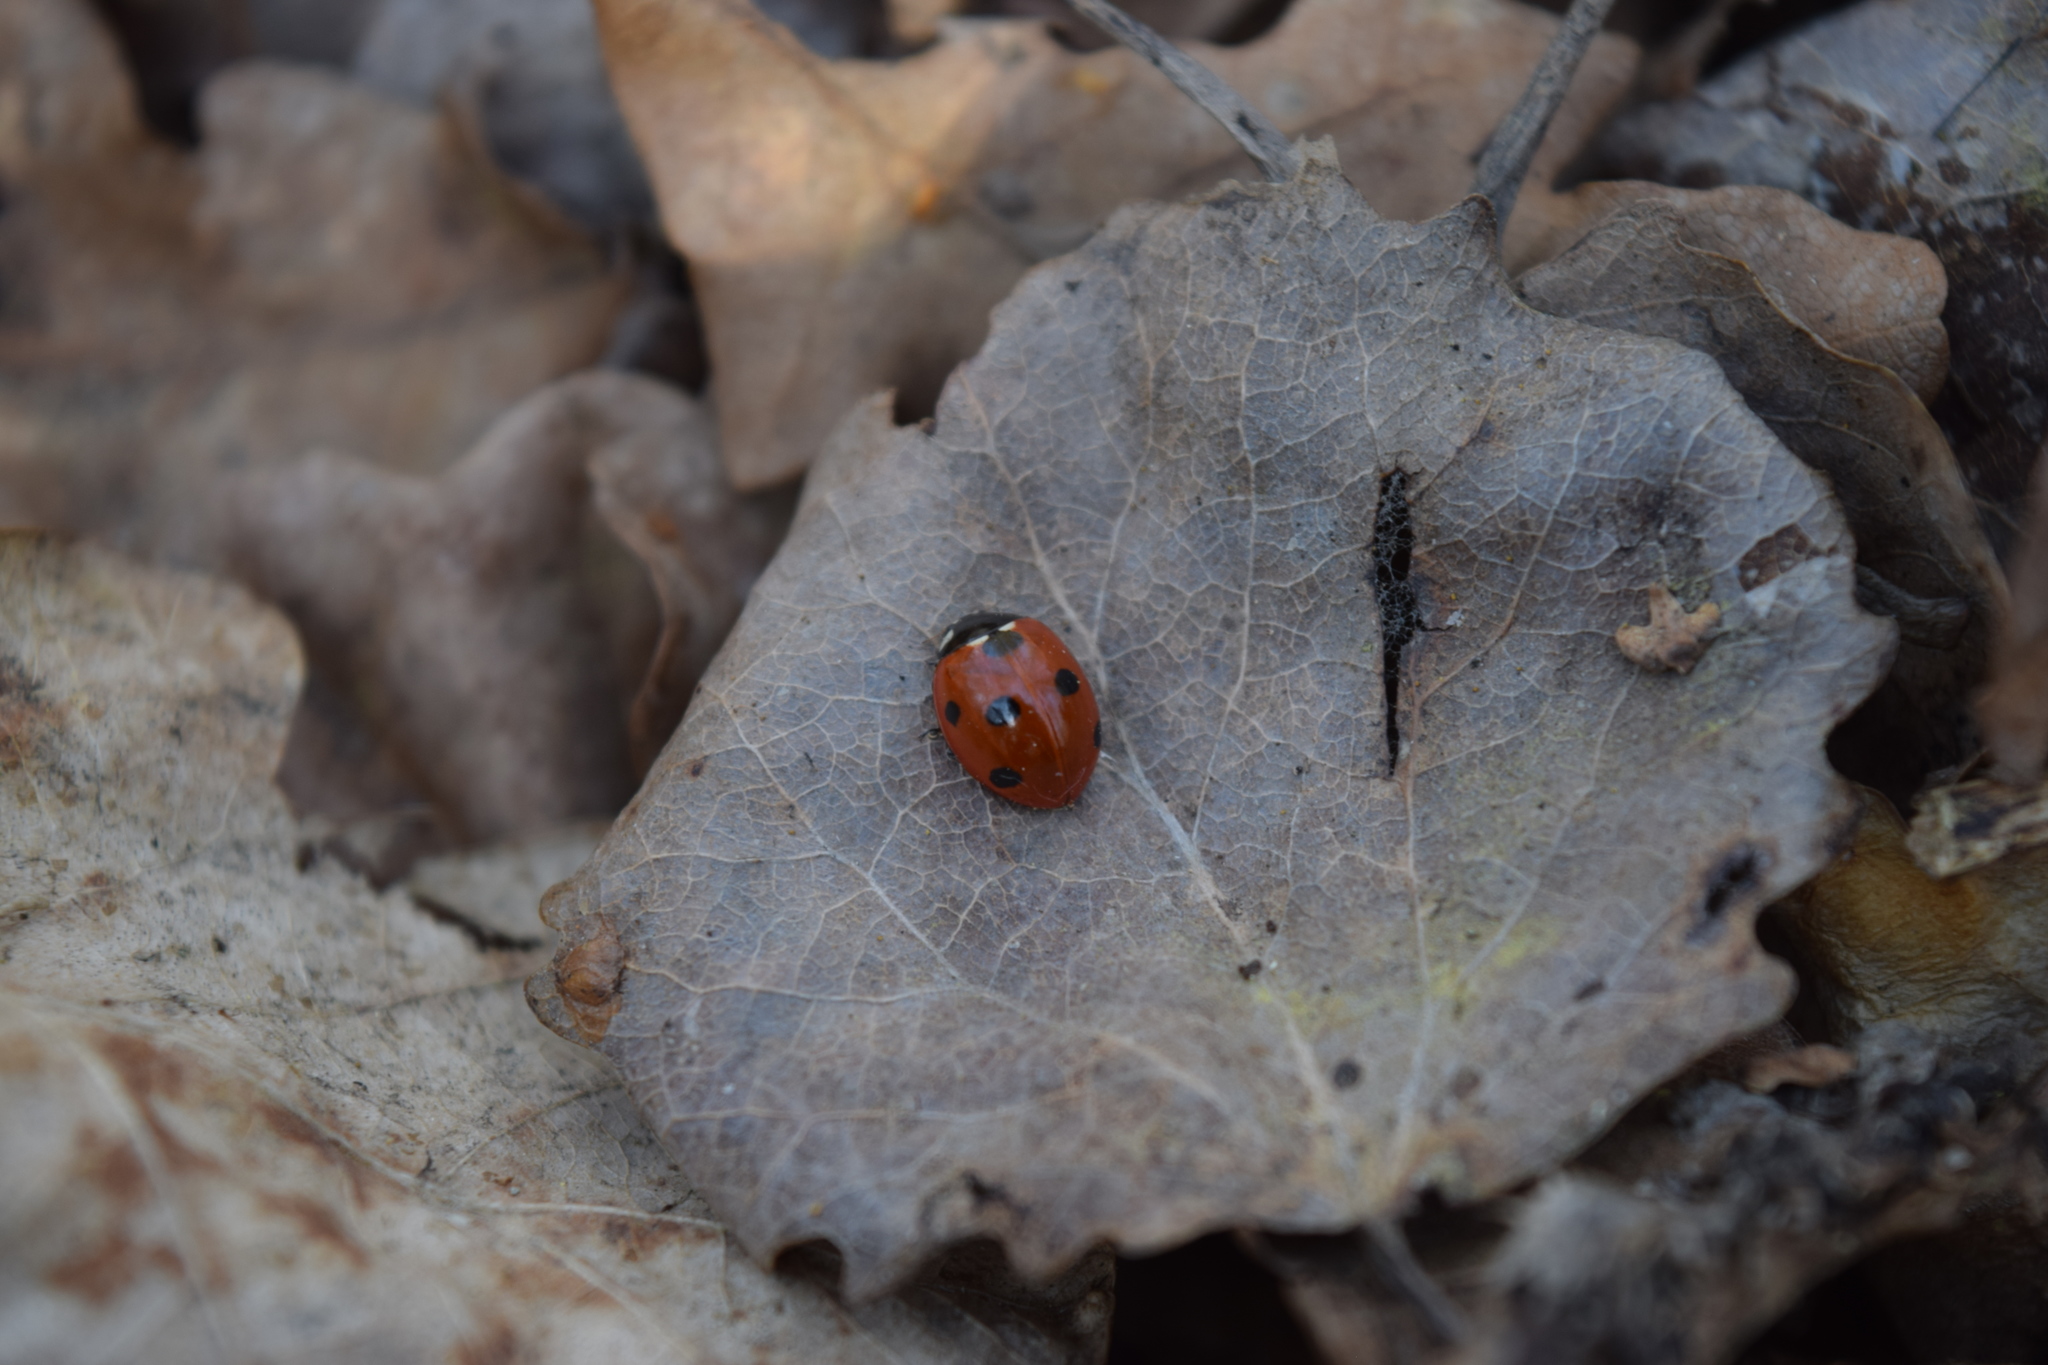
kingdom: Animalia
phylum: Arthropoda
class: Insecta
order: Coleoptera
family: Coccinellidae
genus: Coccinella
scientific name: Coccinella septempunctata
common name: Sevenspotted lady beetle
